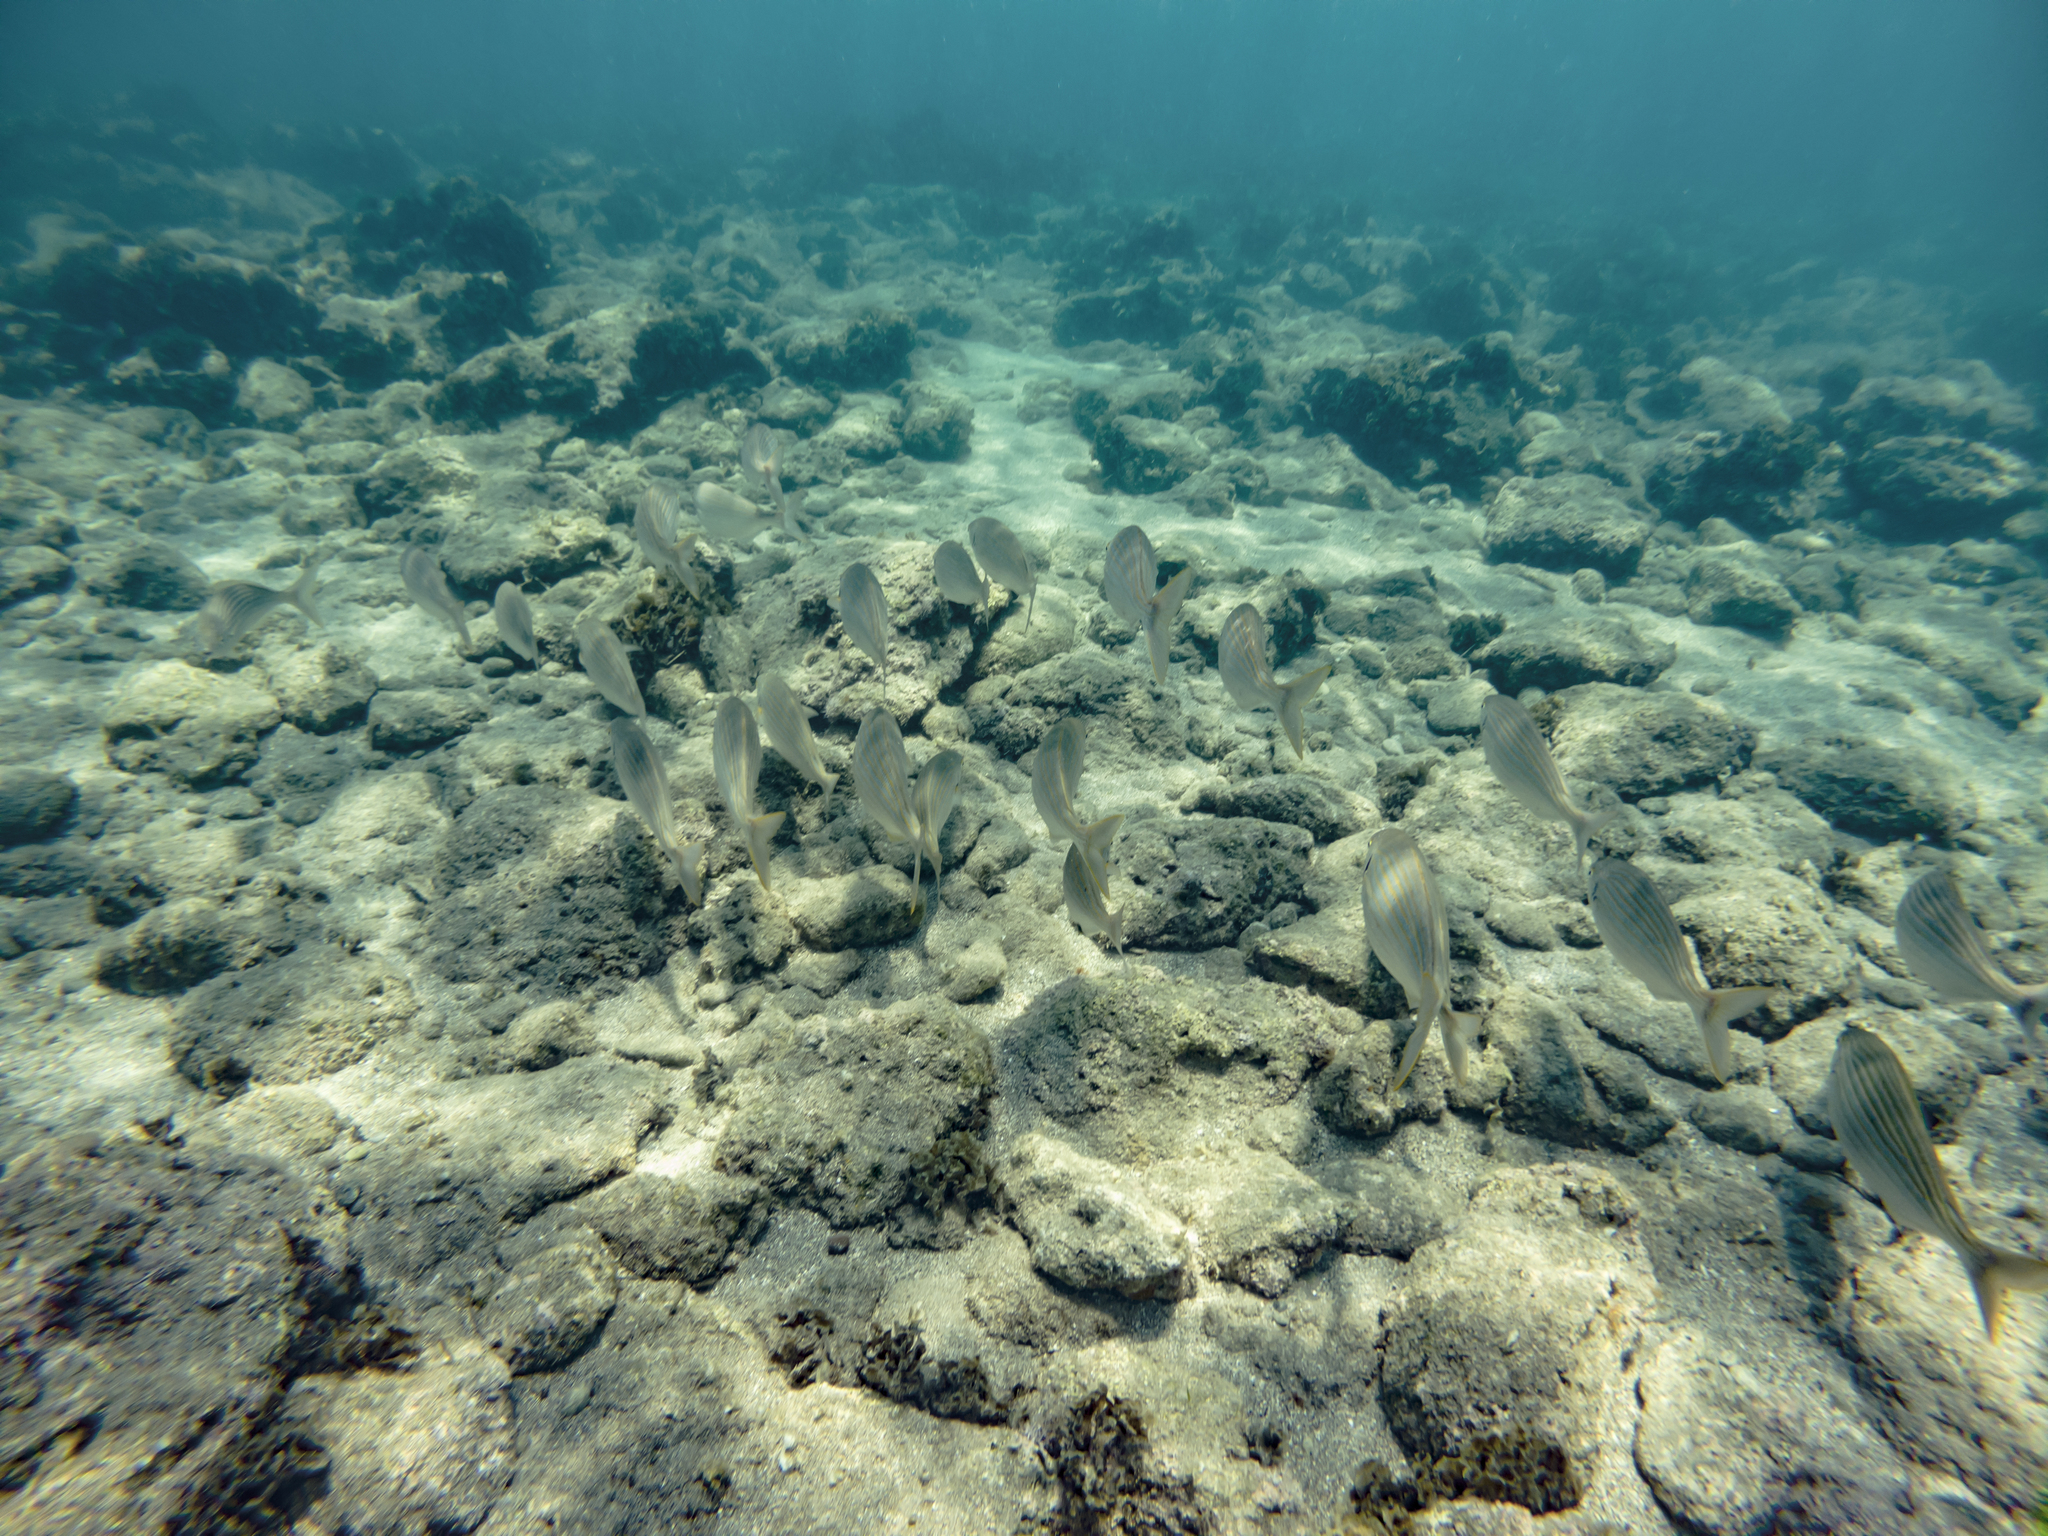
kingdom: Animalia
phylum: Chordata
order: Perciformes
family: Sparidae
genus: Sarpa
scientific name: Sarpa salpa
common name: Salema
